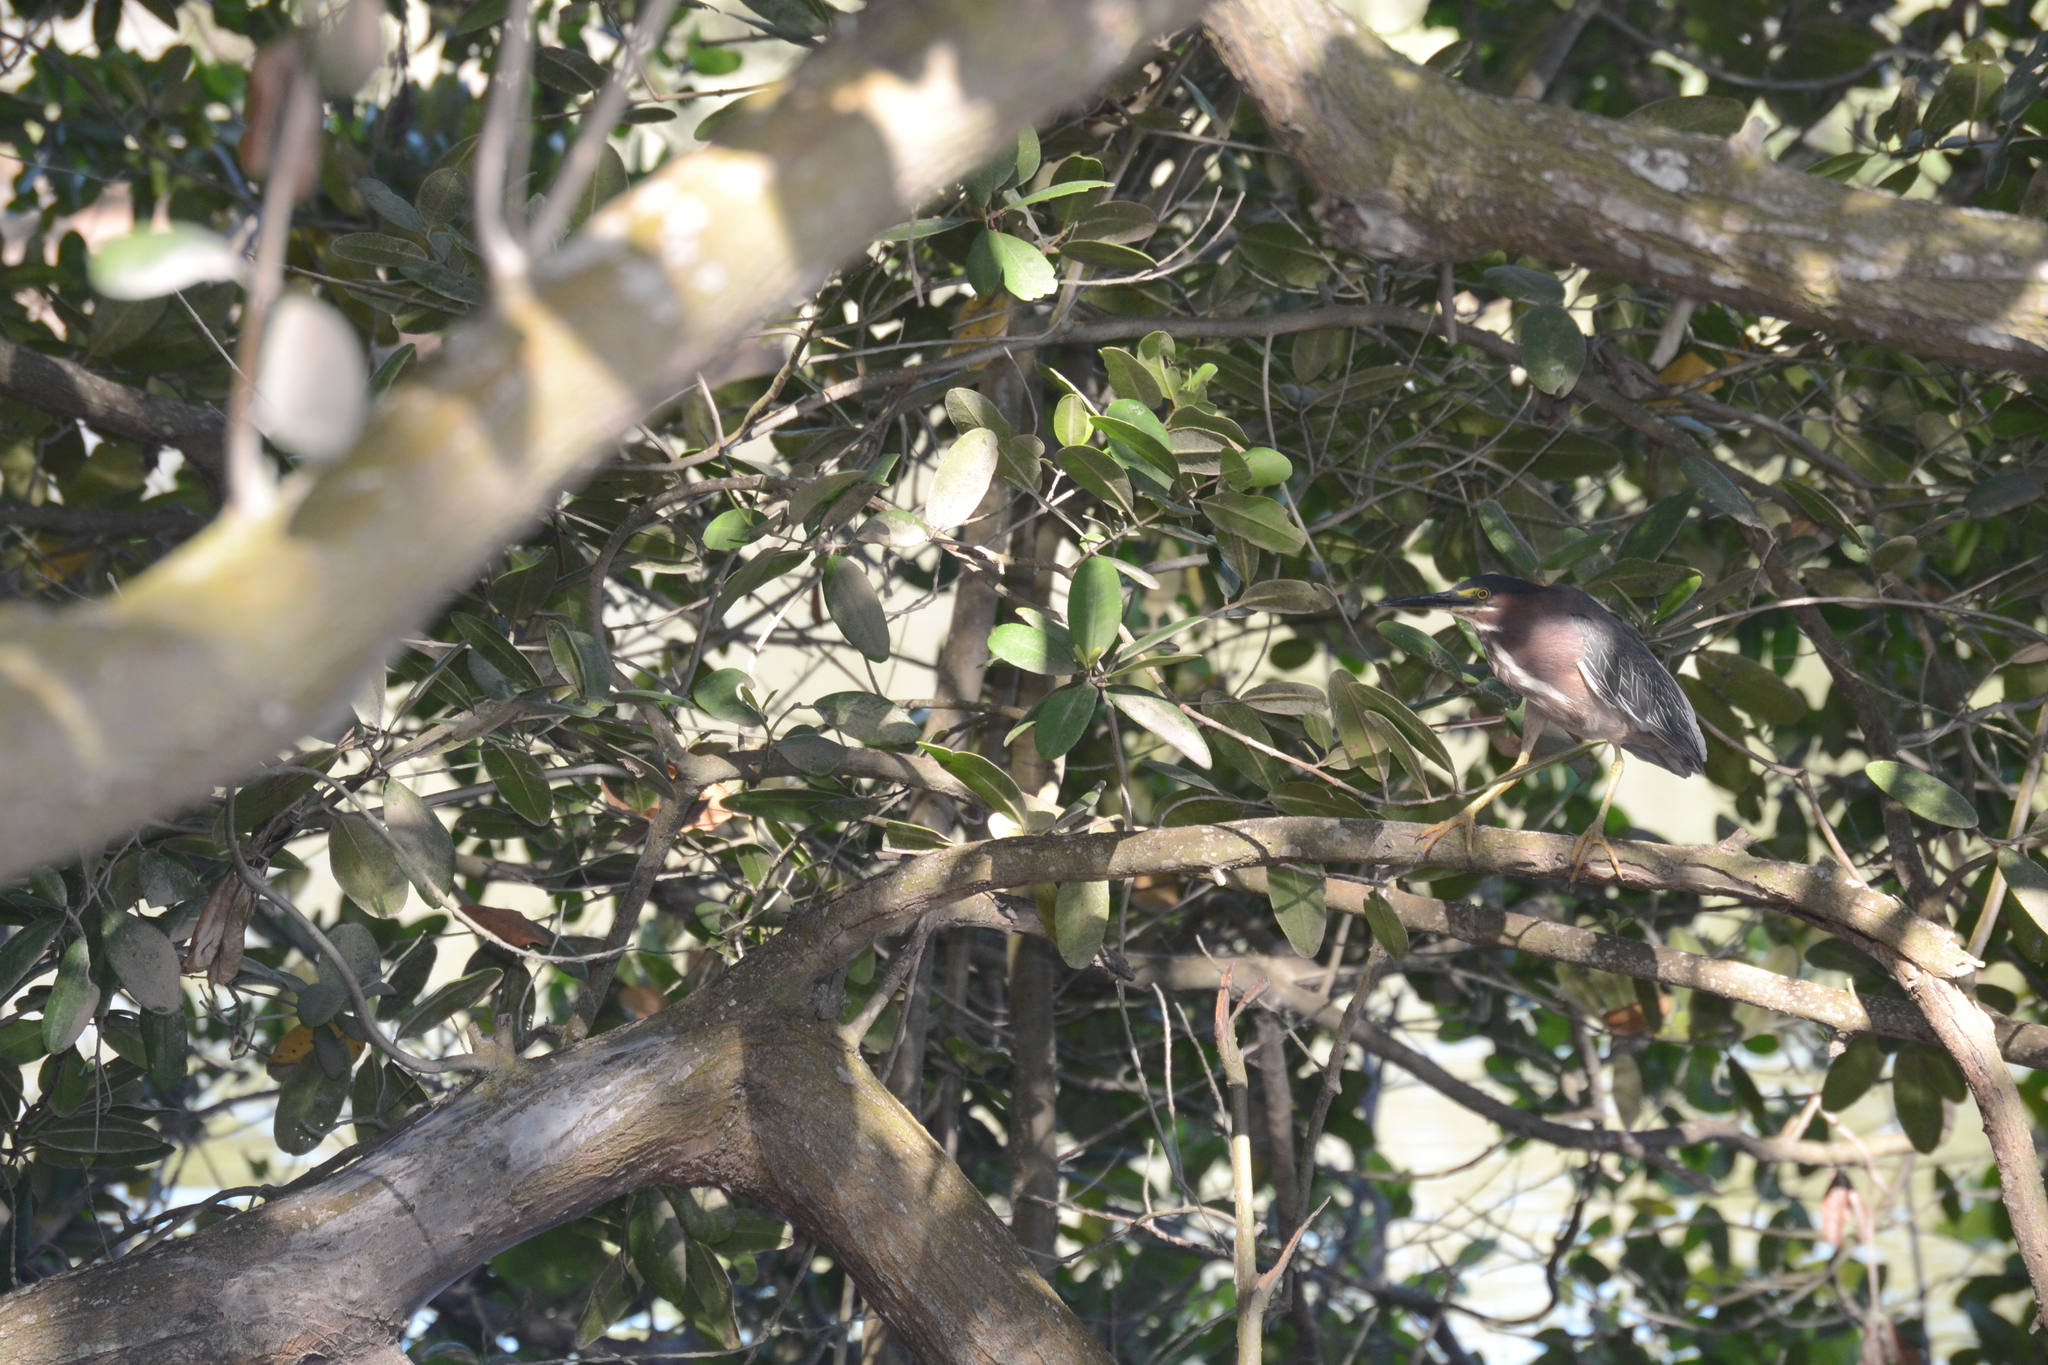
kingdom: Animalia
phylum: Chordata
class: Aves
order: Pelecaniformes
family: Ardeidae
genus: Butorides
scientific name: Butorides virescens
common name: Green heron
